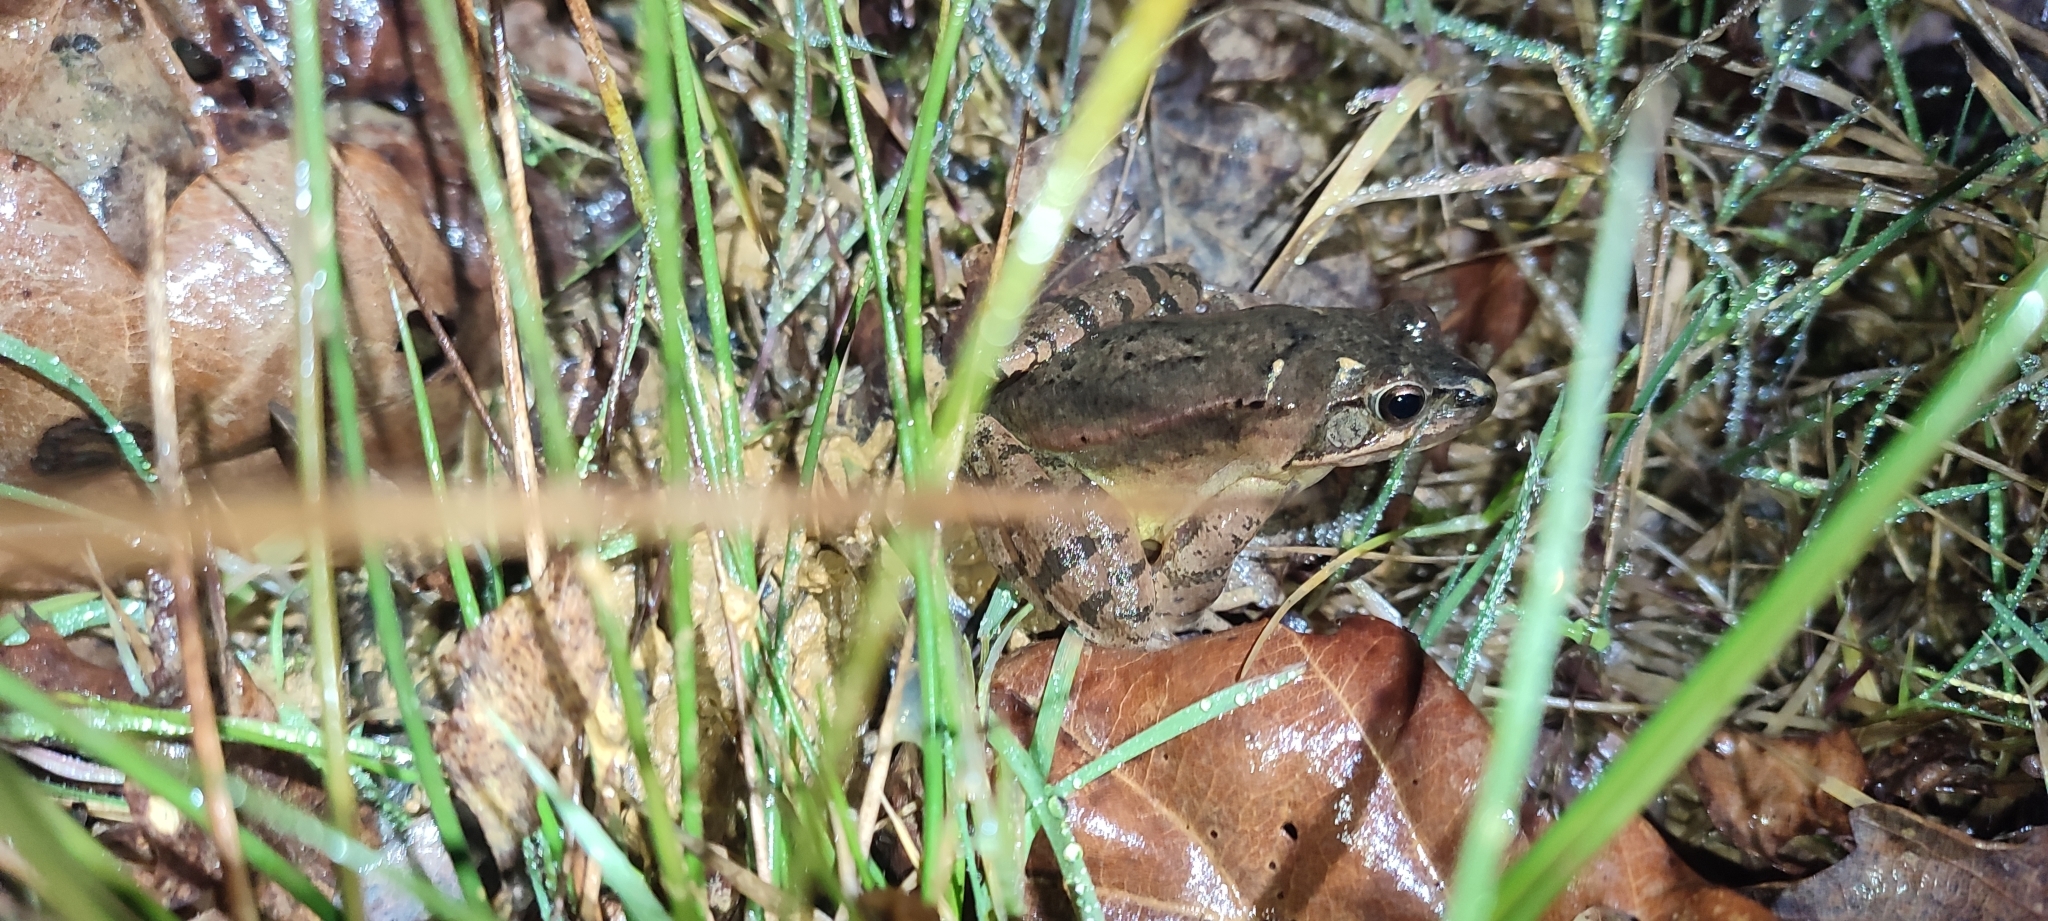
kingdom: Animalia
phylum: Chordata
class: Amphibia
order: Anura
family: Ranidae
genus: Rana
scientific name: Rana dalmatina
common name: Agile frog
